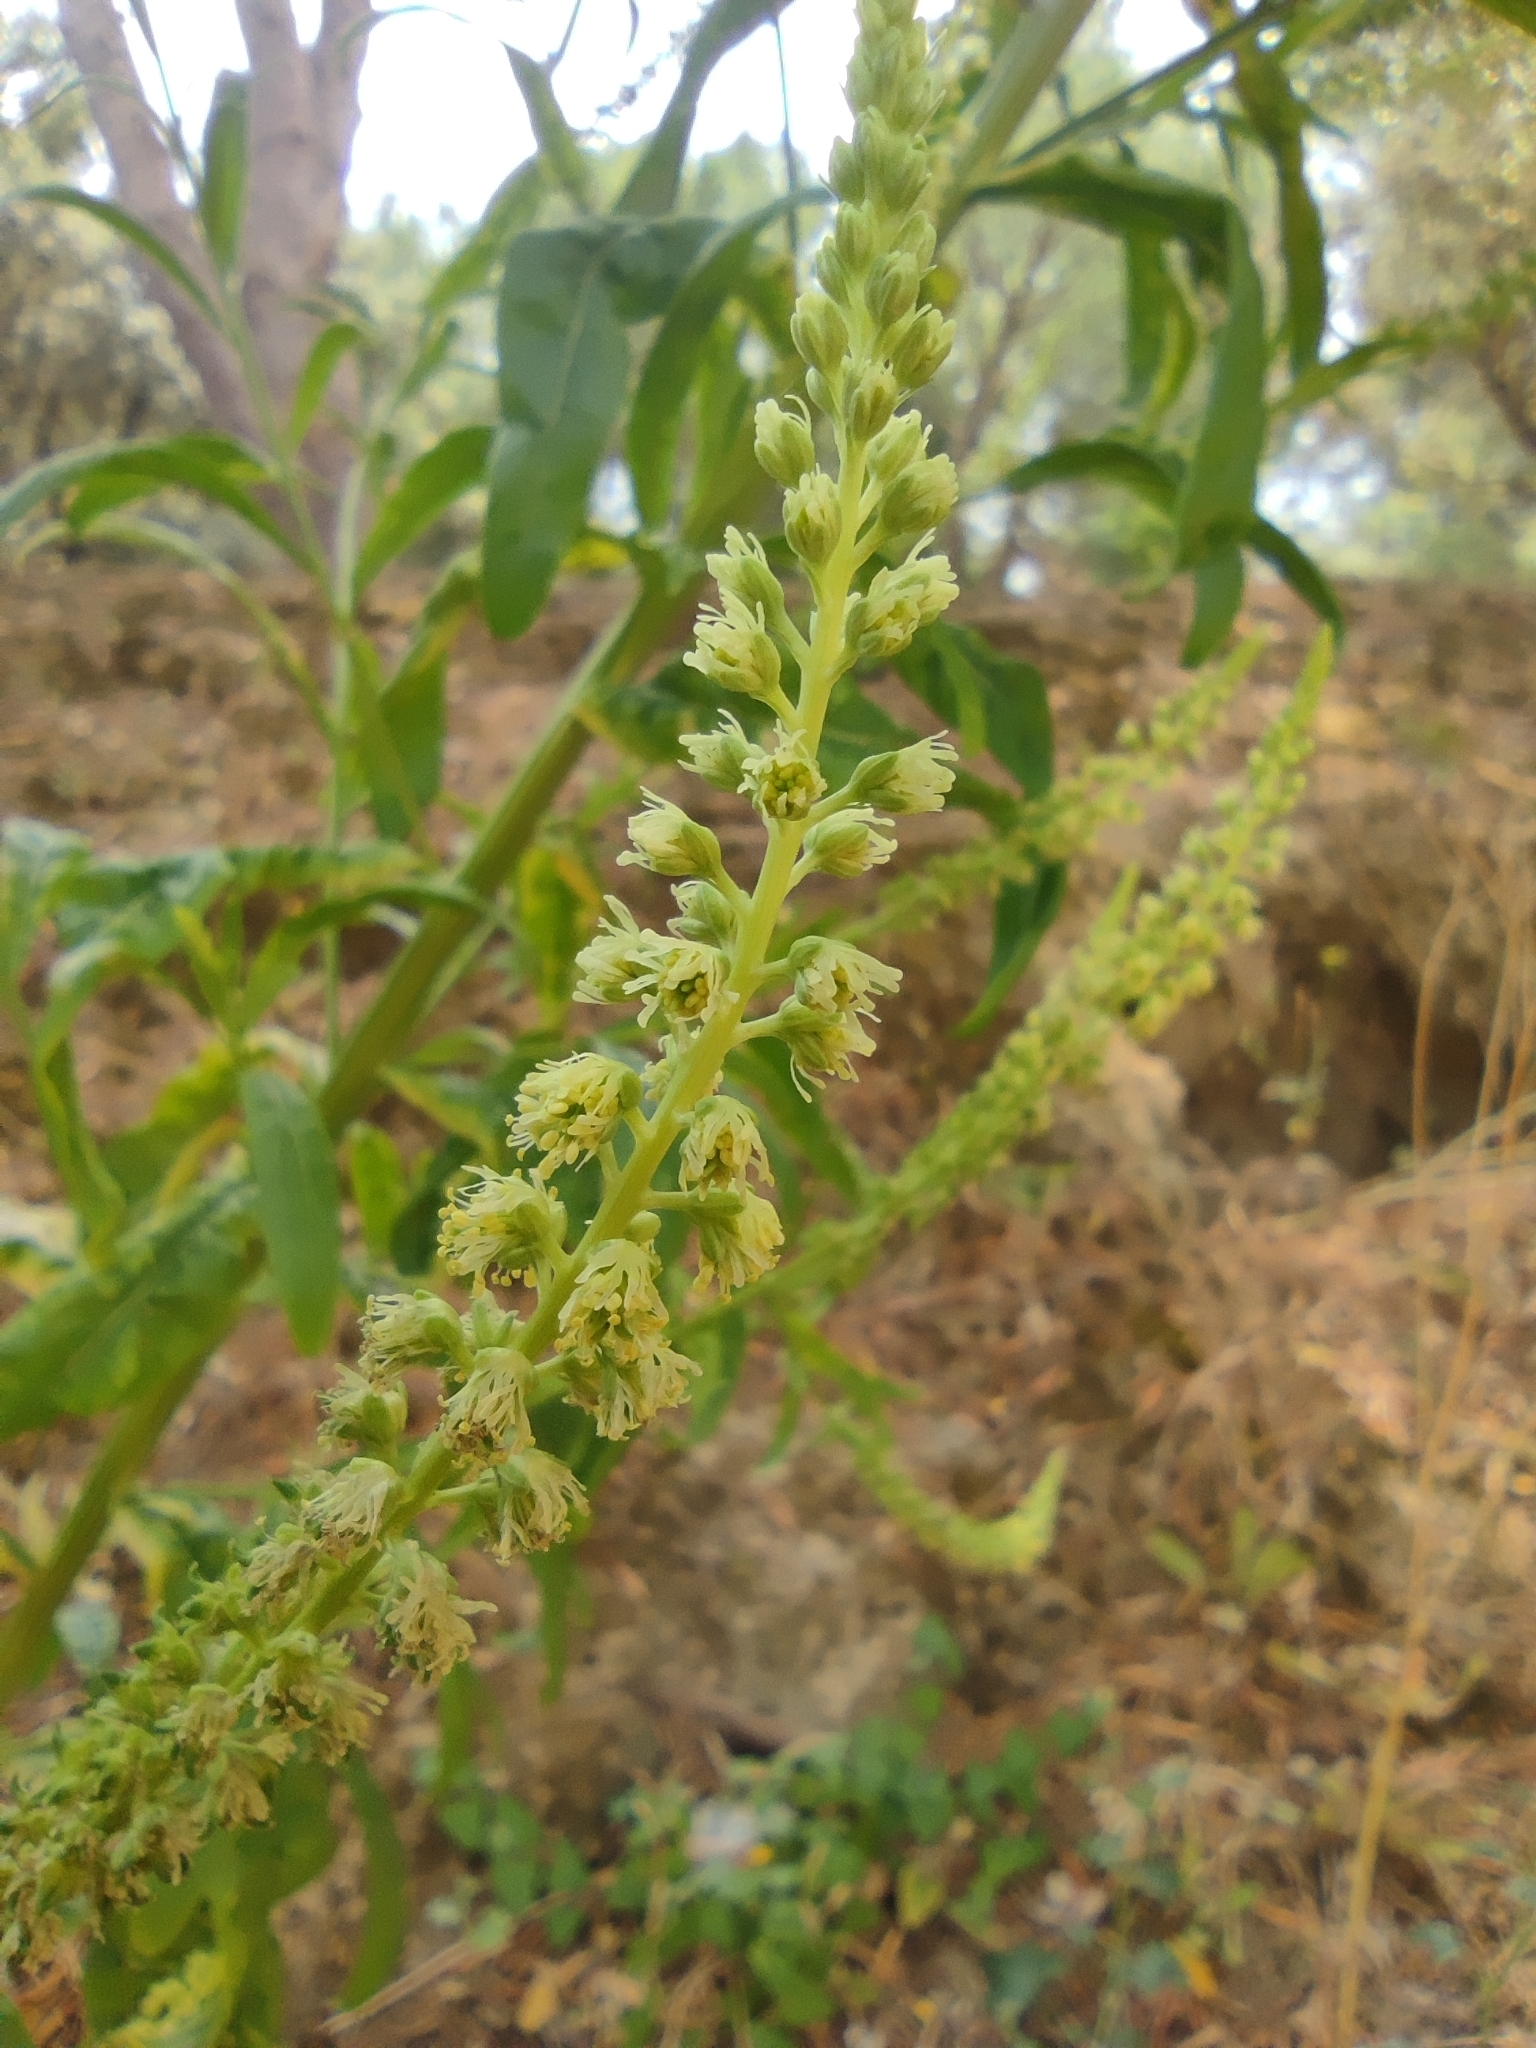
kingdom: Plantae
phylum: Tracheophyta
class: Magnoliopsida
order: Brassicales
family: Resedaceae
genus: Reseda
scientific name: Reseda luteola
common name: Weld
